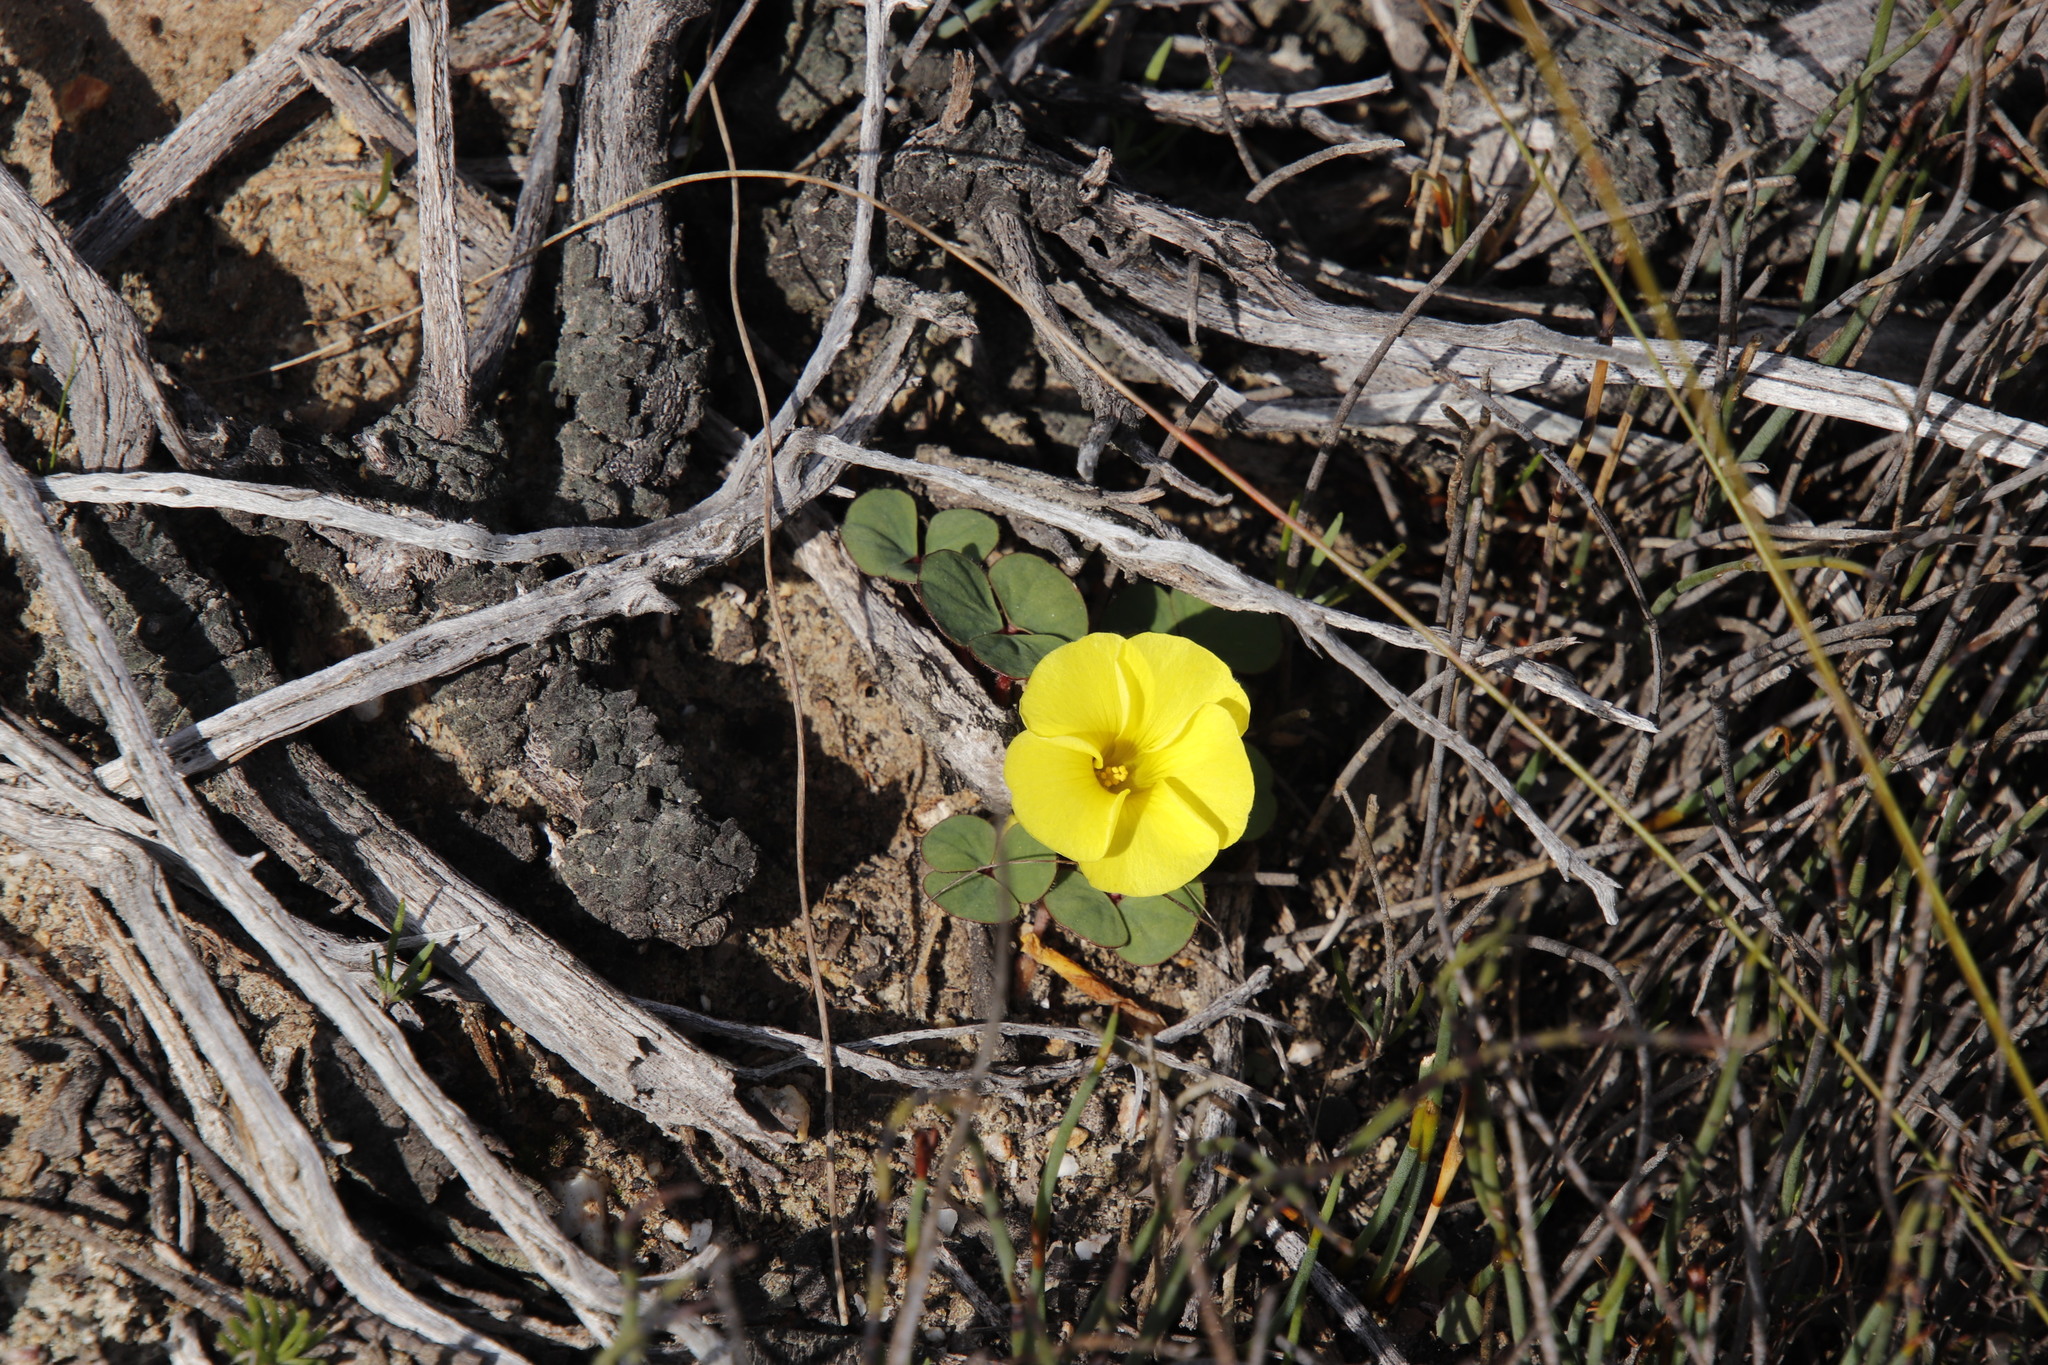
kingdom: Plantae
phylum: Tracheophyta
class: Magnoliopsida
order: Oxalidales
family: Oxalidaceae
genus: Oxalis
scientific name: Oxalis luteola
